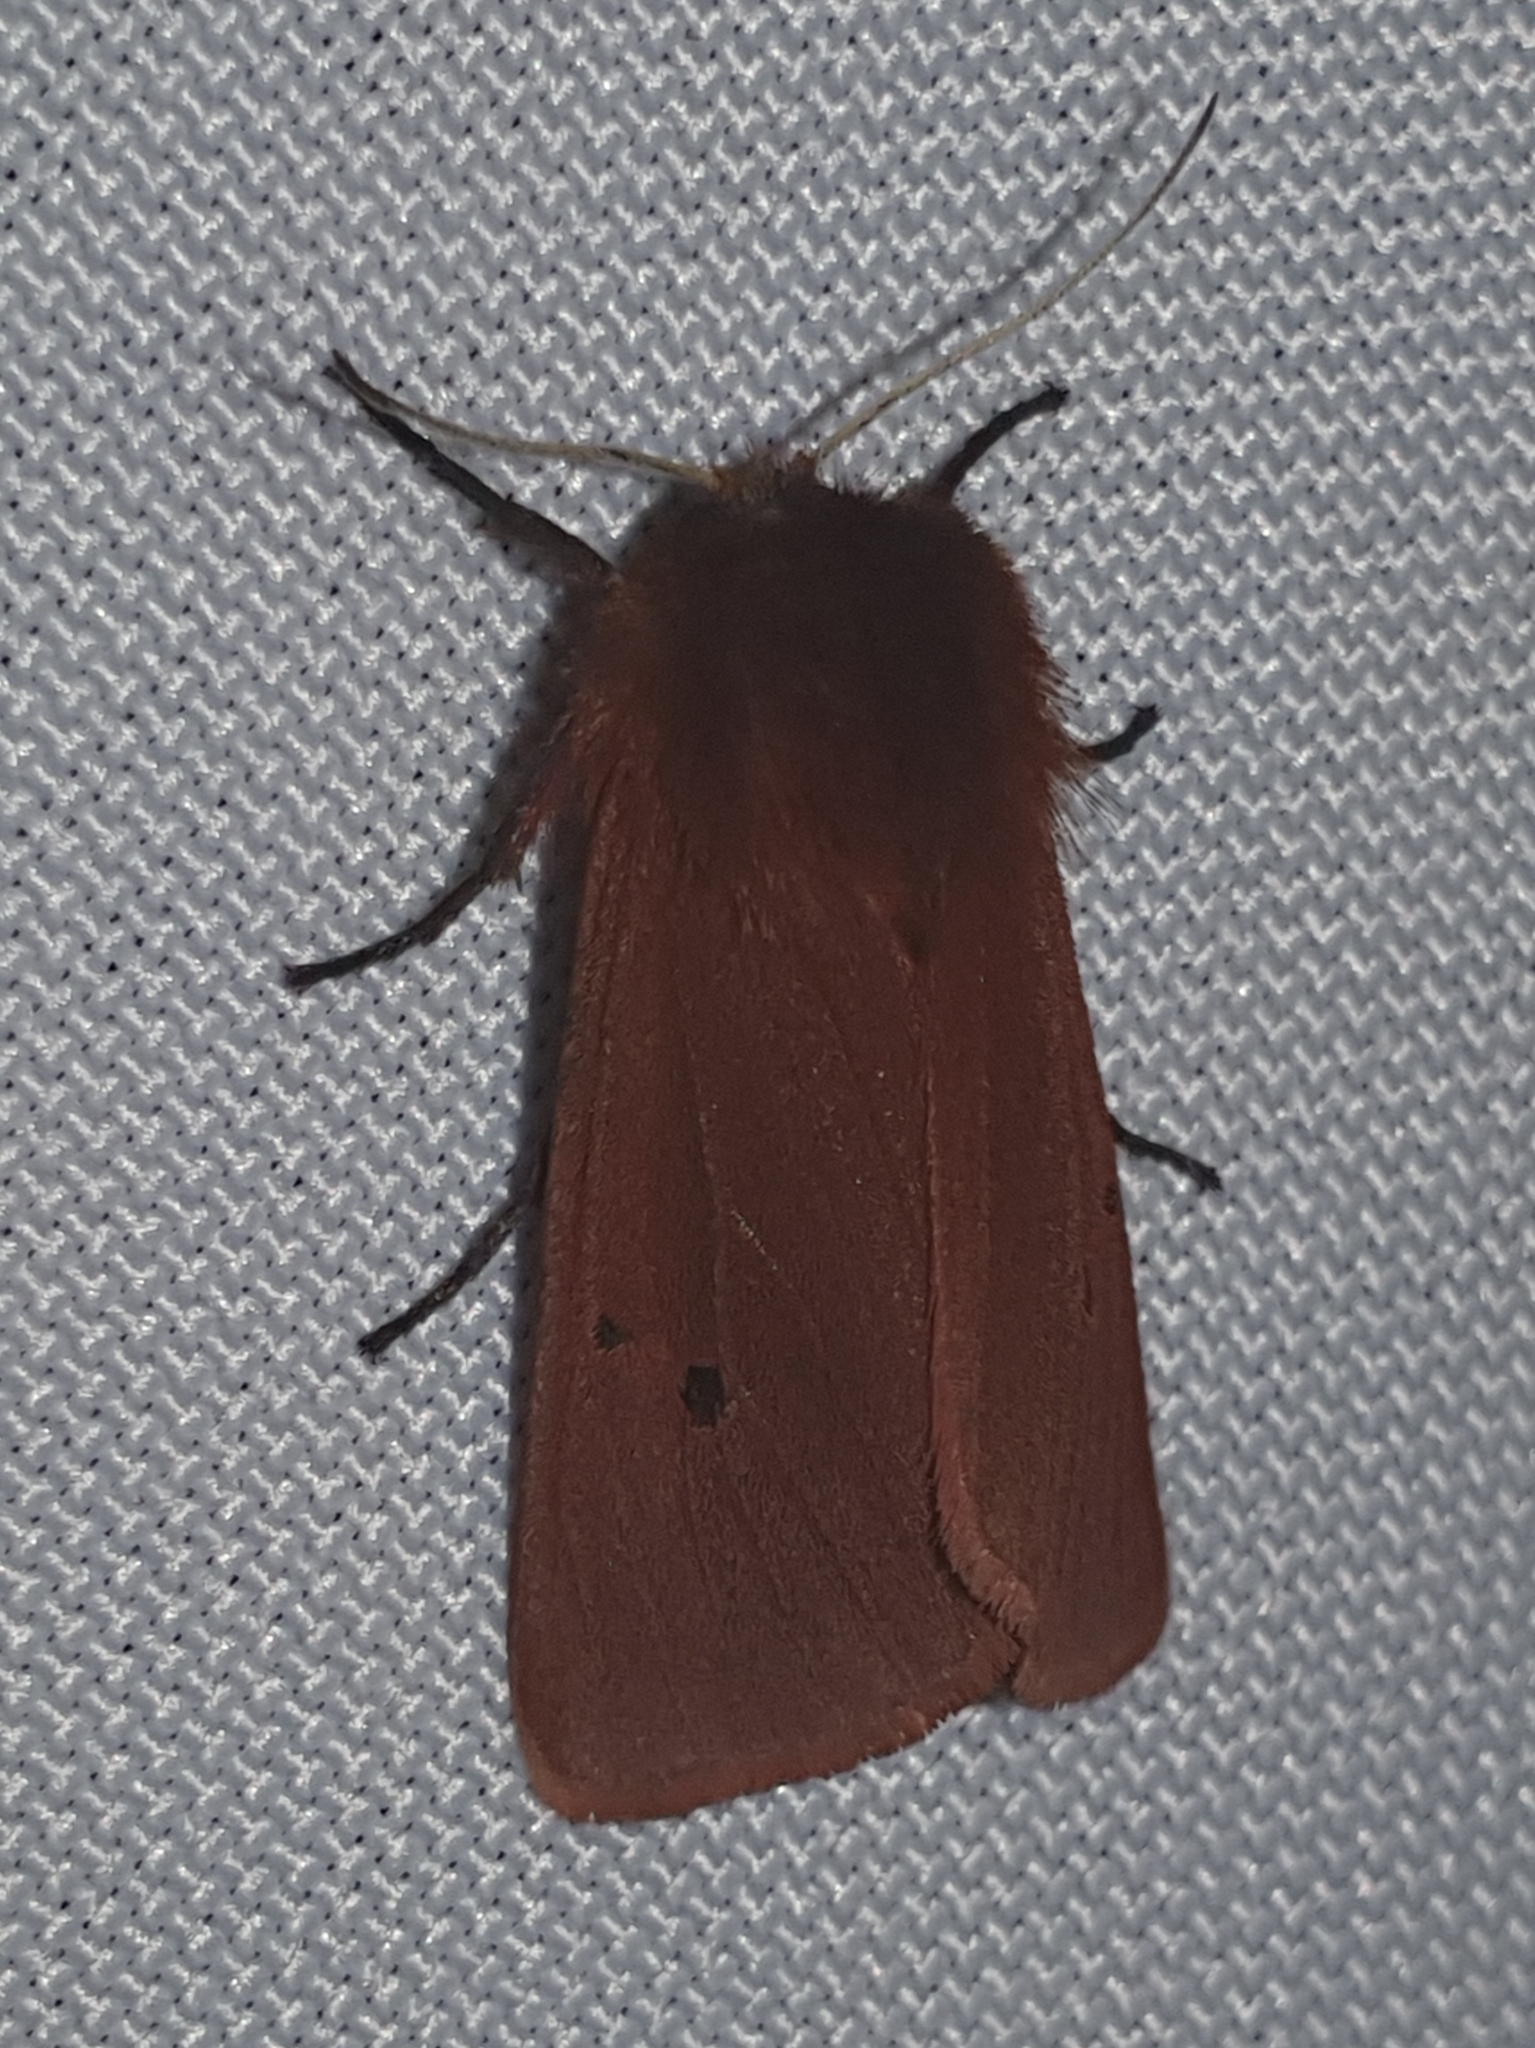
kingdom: Animalia
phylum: Arthropoda
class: Insecta
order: Lepidoptera
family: Erebidae
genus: Phragmatobia
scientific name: Phragmatobia fuliginosa
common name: Ruby tiger
